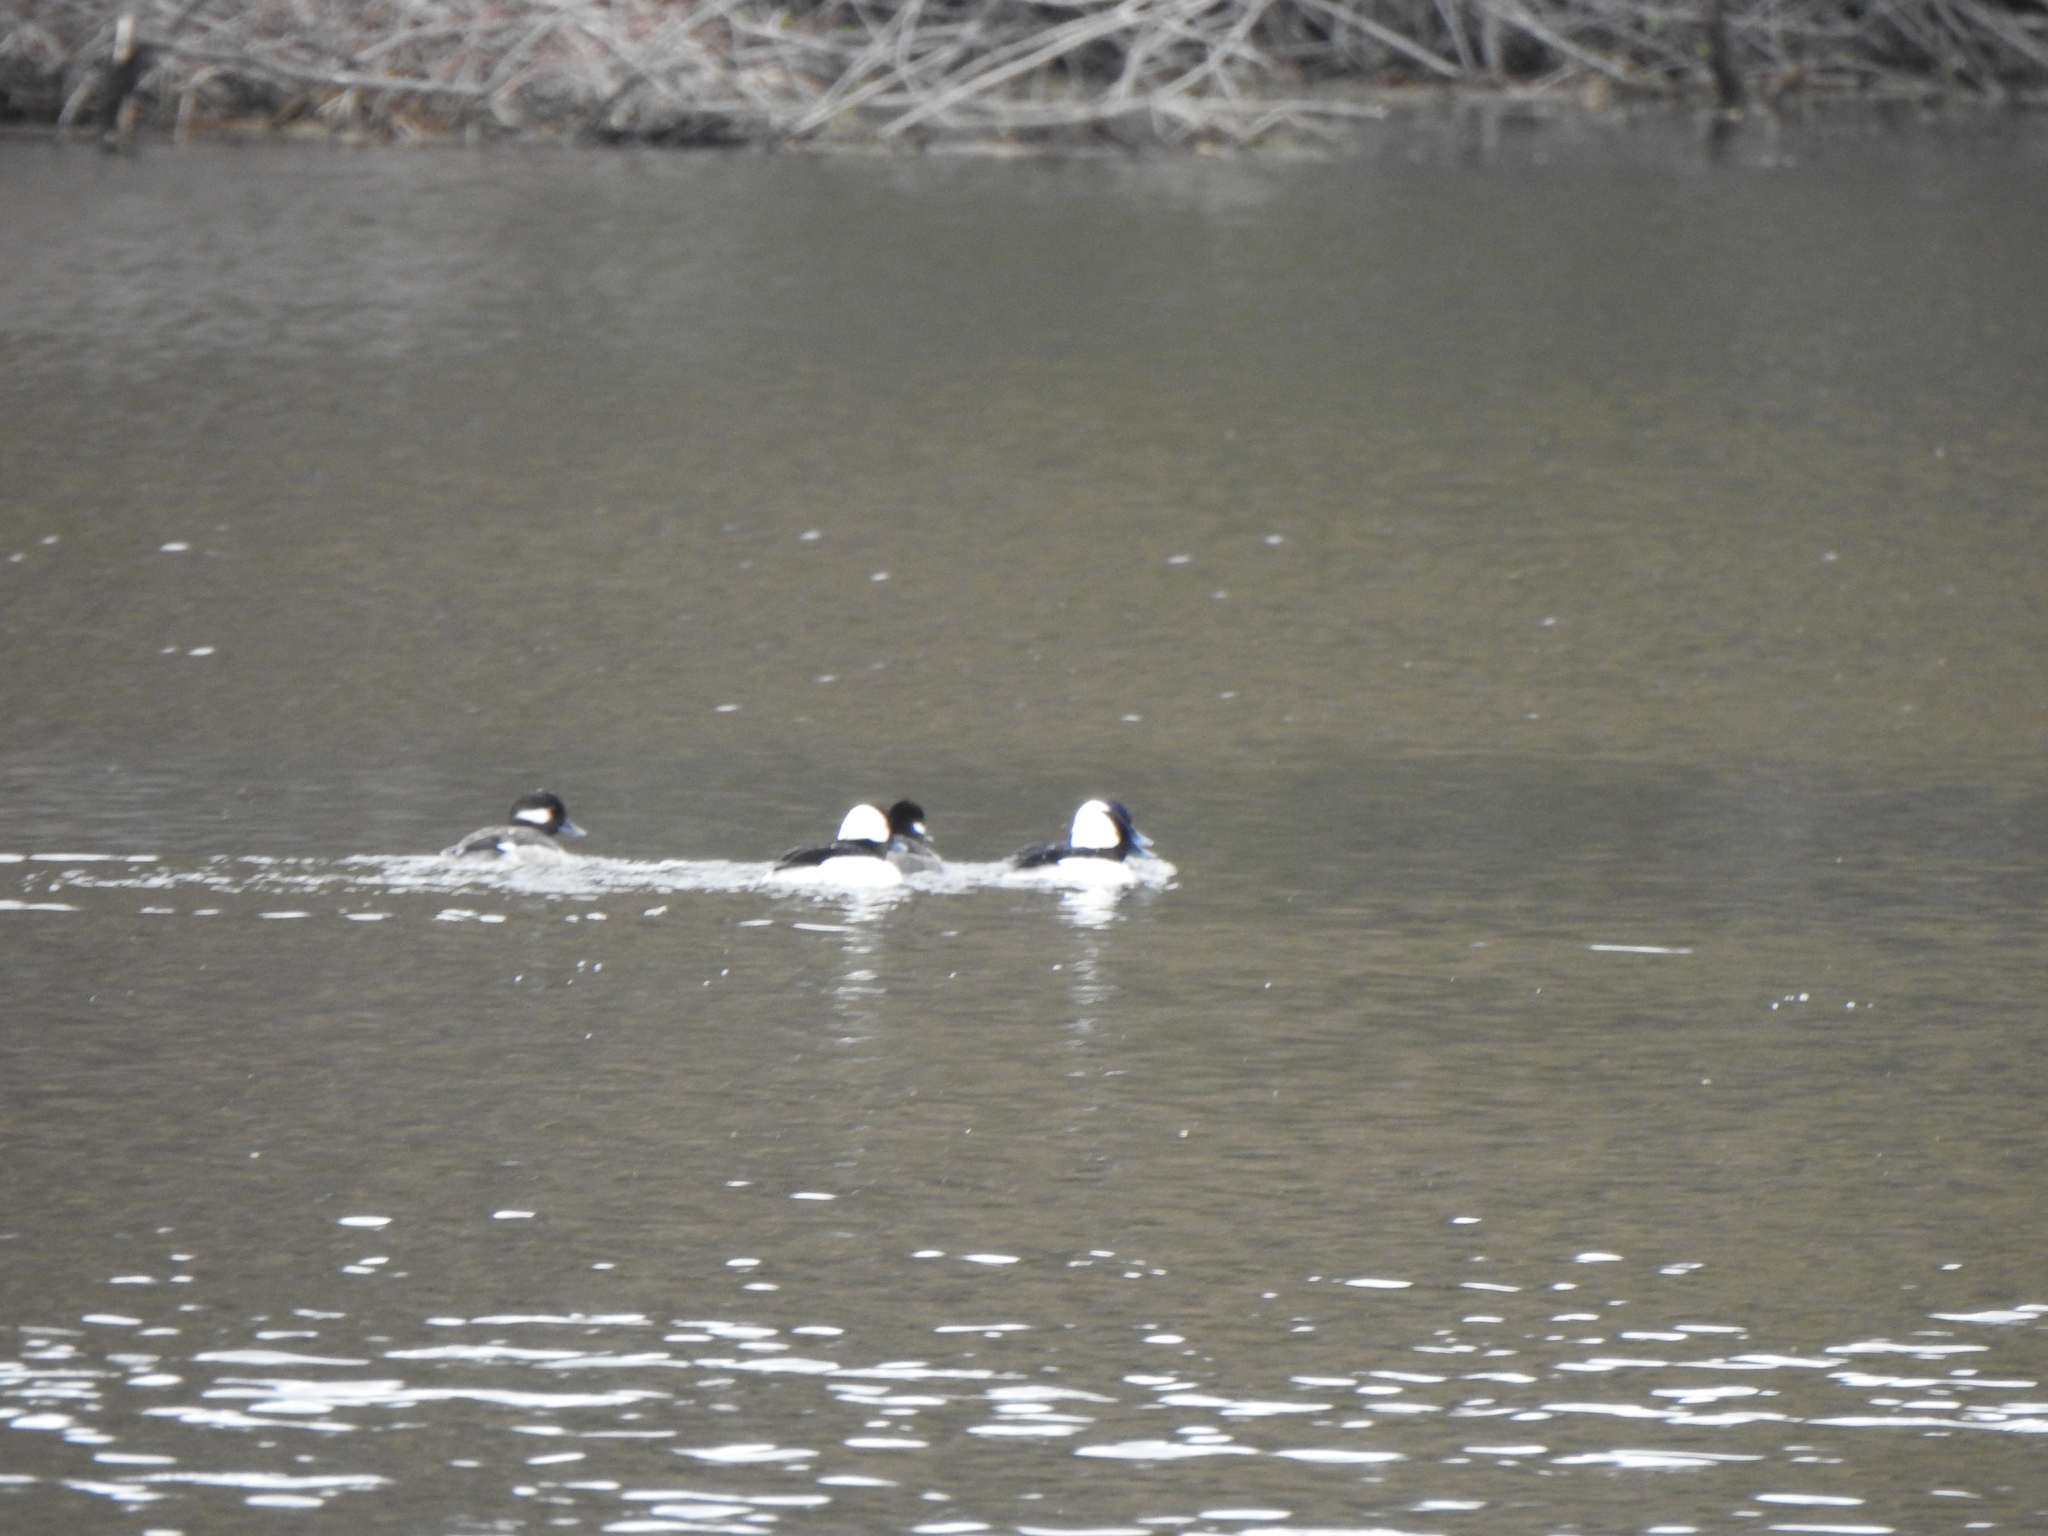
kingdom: Animalia
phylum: Chordata
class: Aves
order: Anseriformes
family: Anatidae
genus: Bucephala
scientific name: Bucephala albeola
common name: Bufflehead
